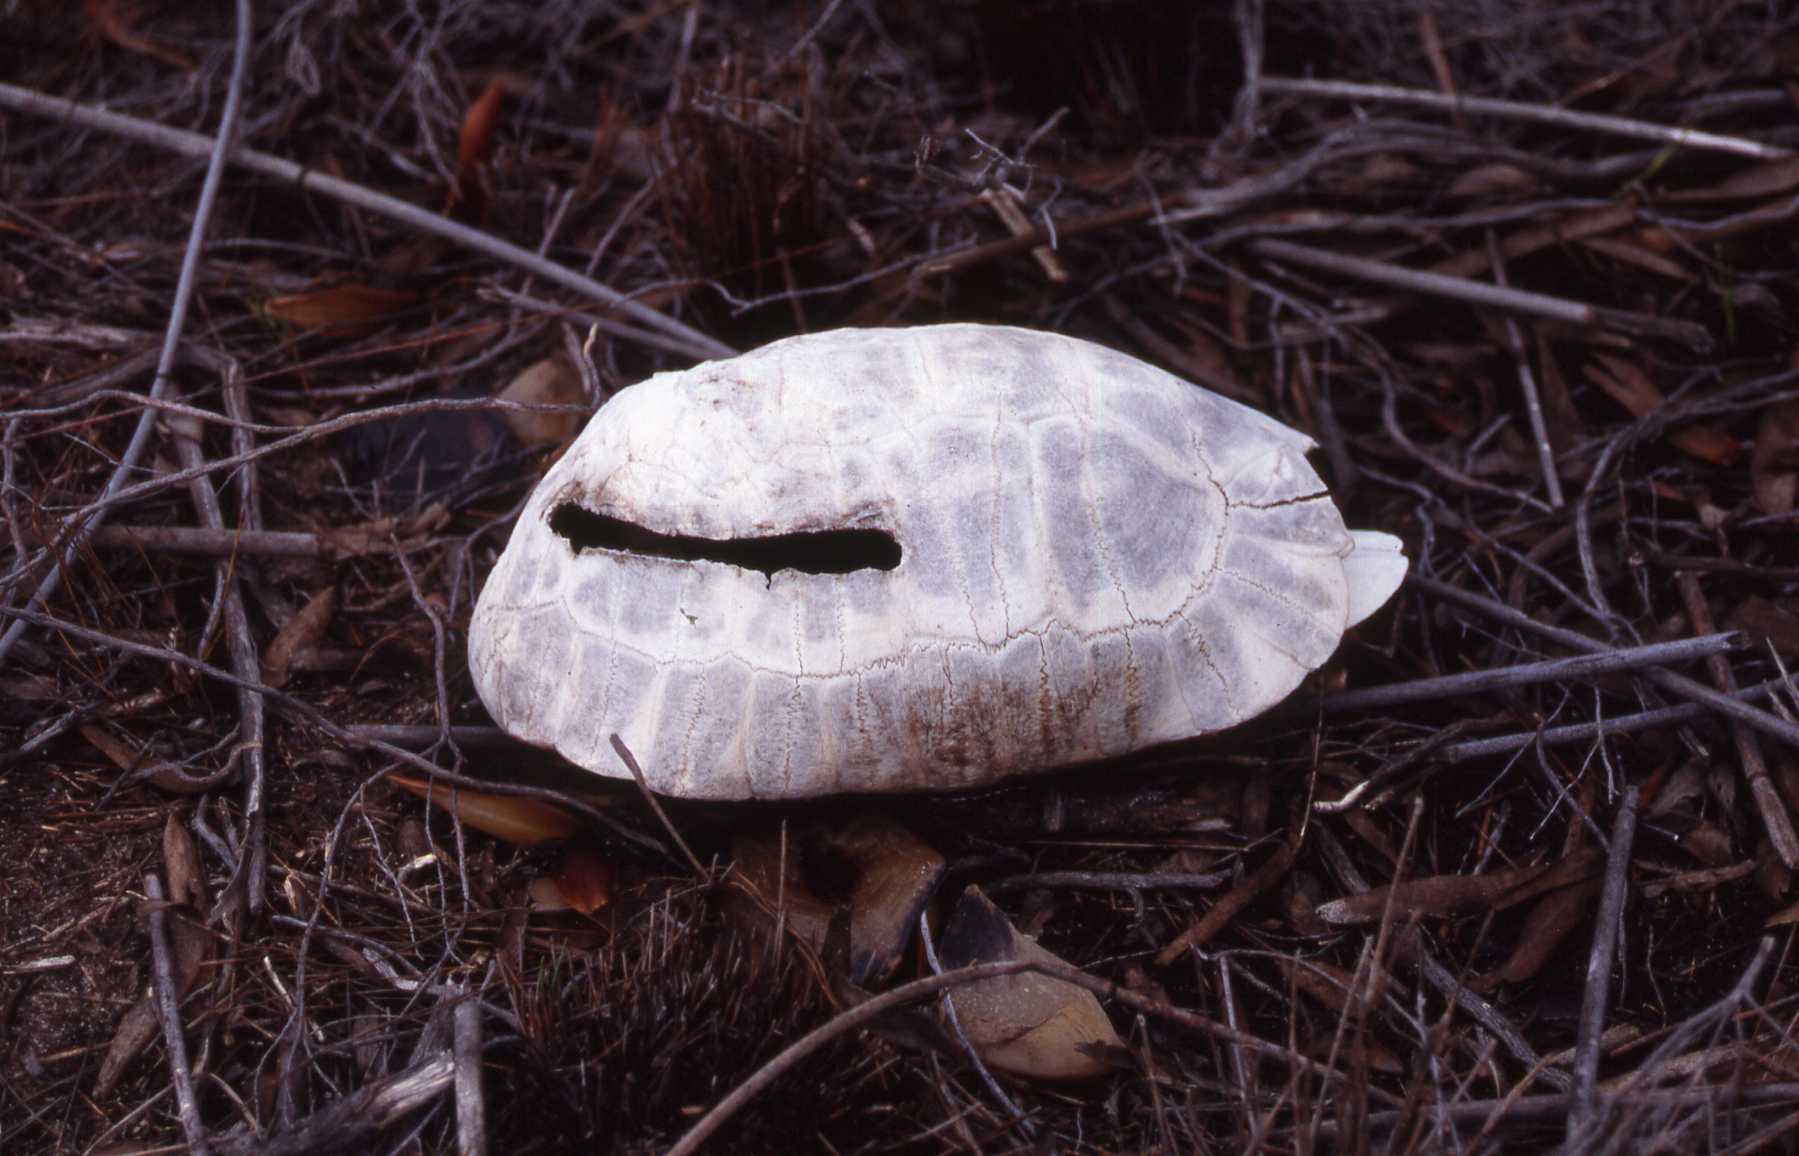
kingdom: Animalia
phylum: Chordata
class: Testudines
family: Testudinidae
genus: Chersina
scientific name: Chersina angulata
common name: South african bowsprit tortoise
